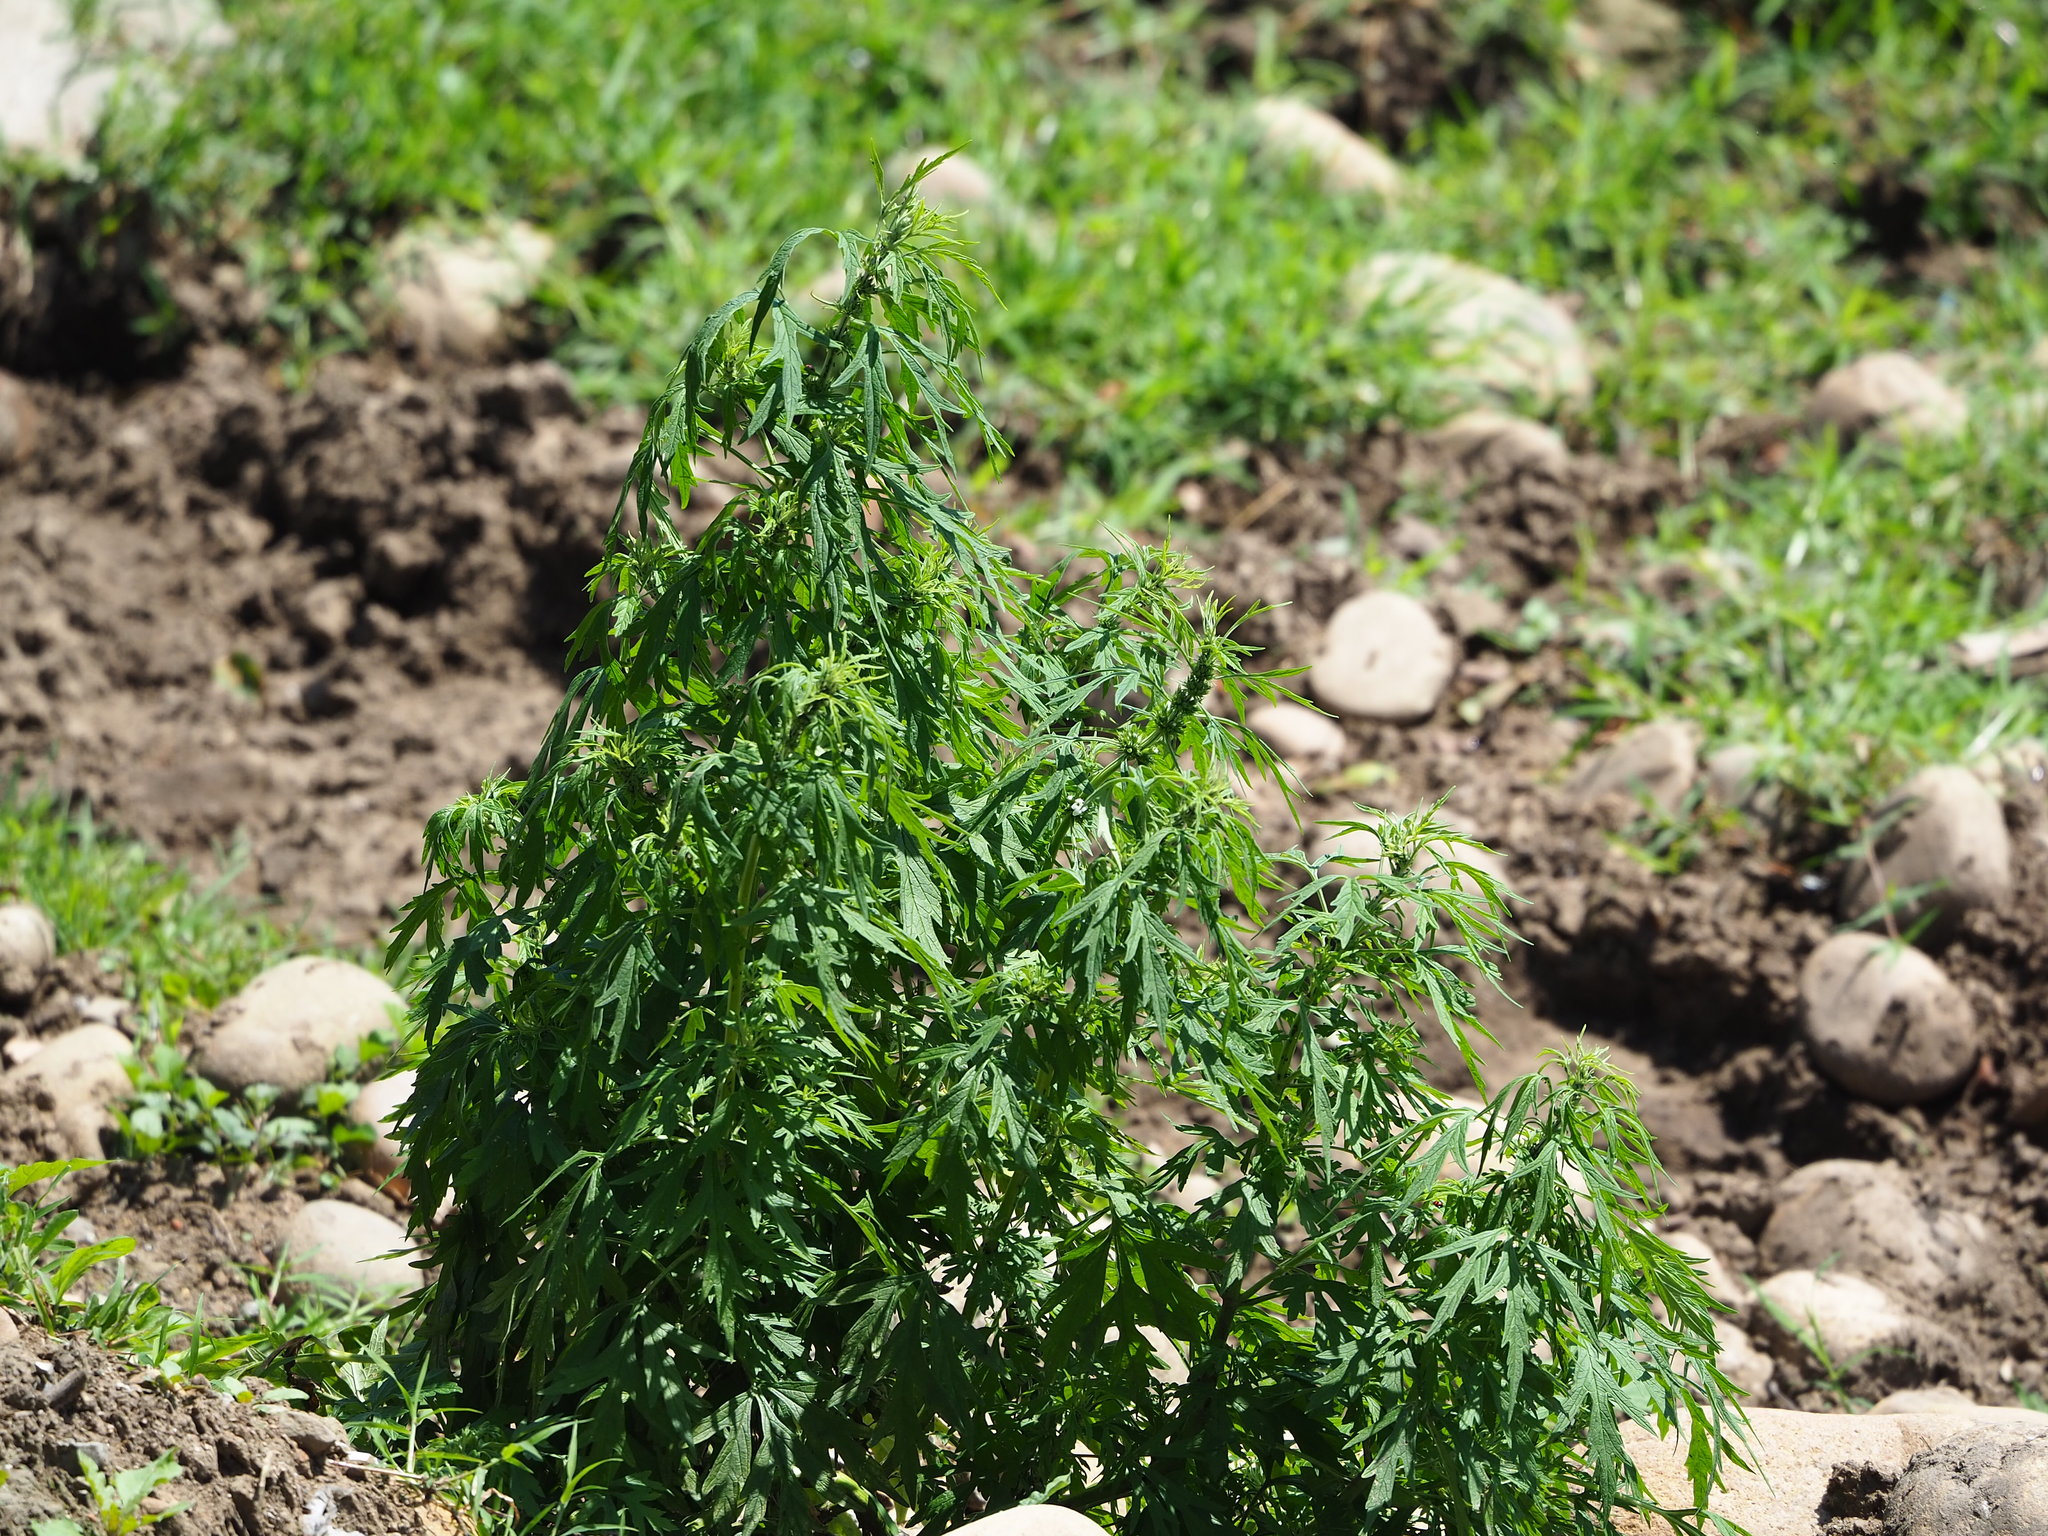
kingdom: Plantae
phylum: Tracheophyta
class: Magnoliopsida
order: Lamiales
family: Lamiaceae
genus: Leonurus
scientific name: Leonurus japonicus
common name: Honeyweed
